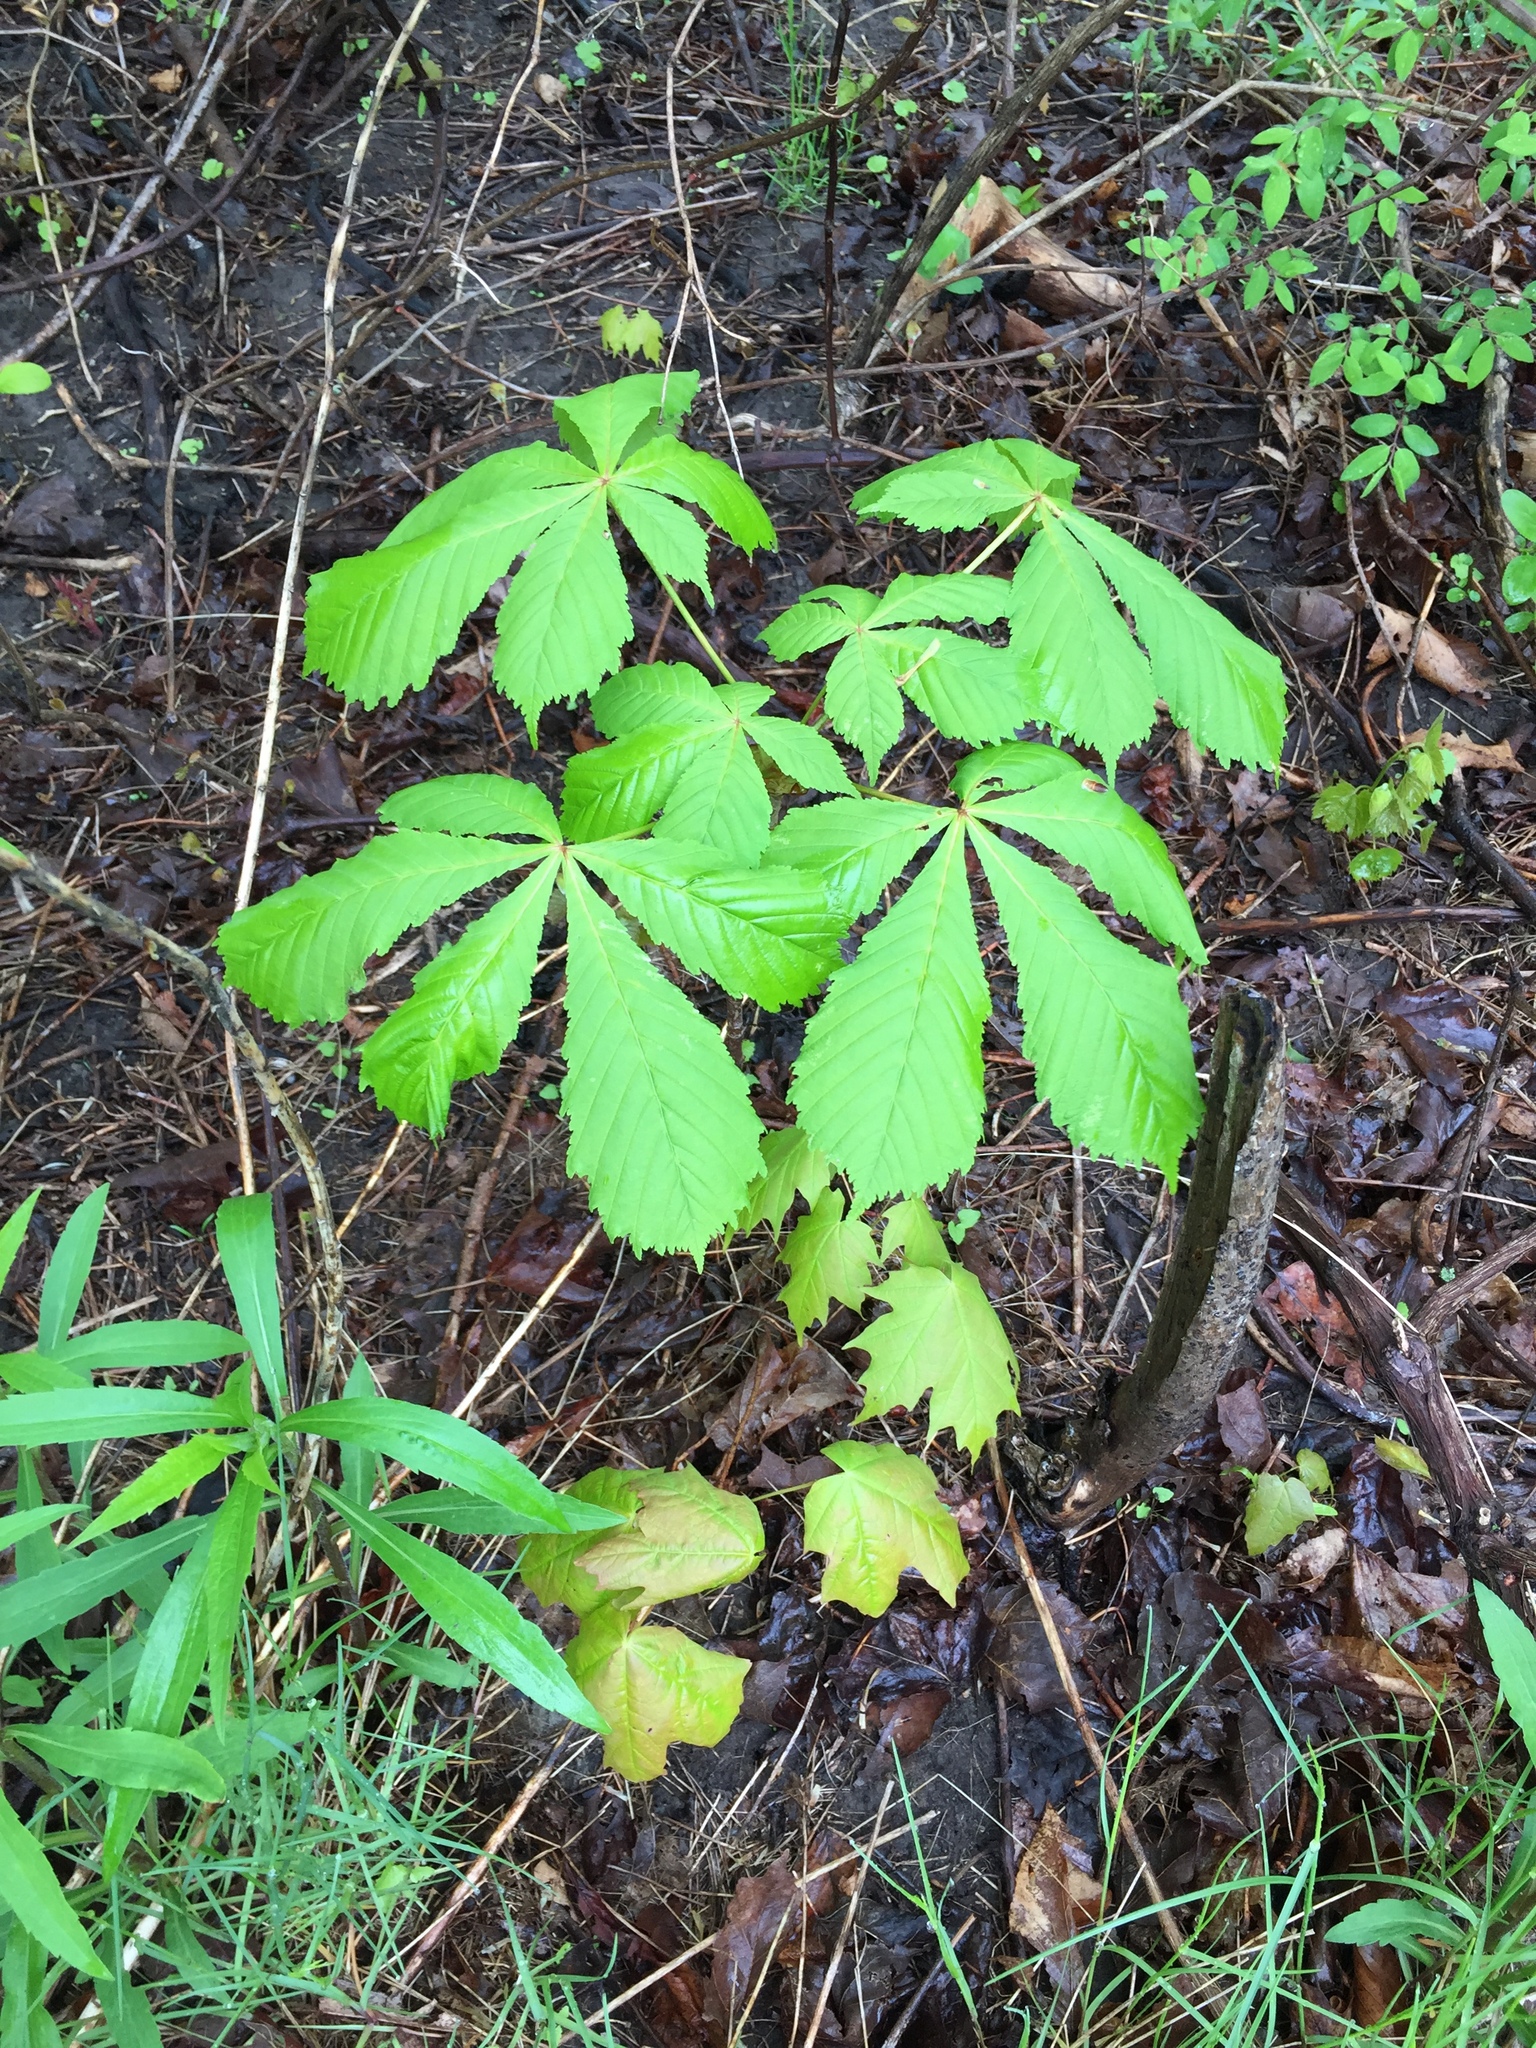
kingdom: Plantae
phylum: Tracheophyta
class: Magnoliopsida
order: Sapindales
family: Sapindaceae
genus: Aesculus
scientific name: Aesculus hippocastanum
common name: Horse-chestnut
